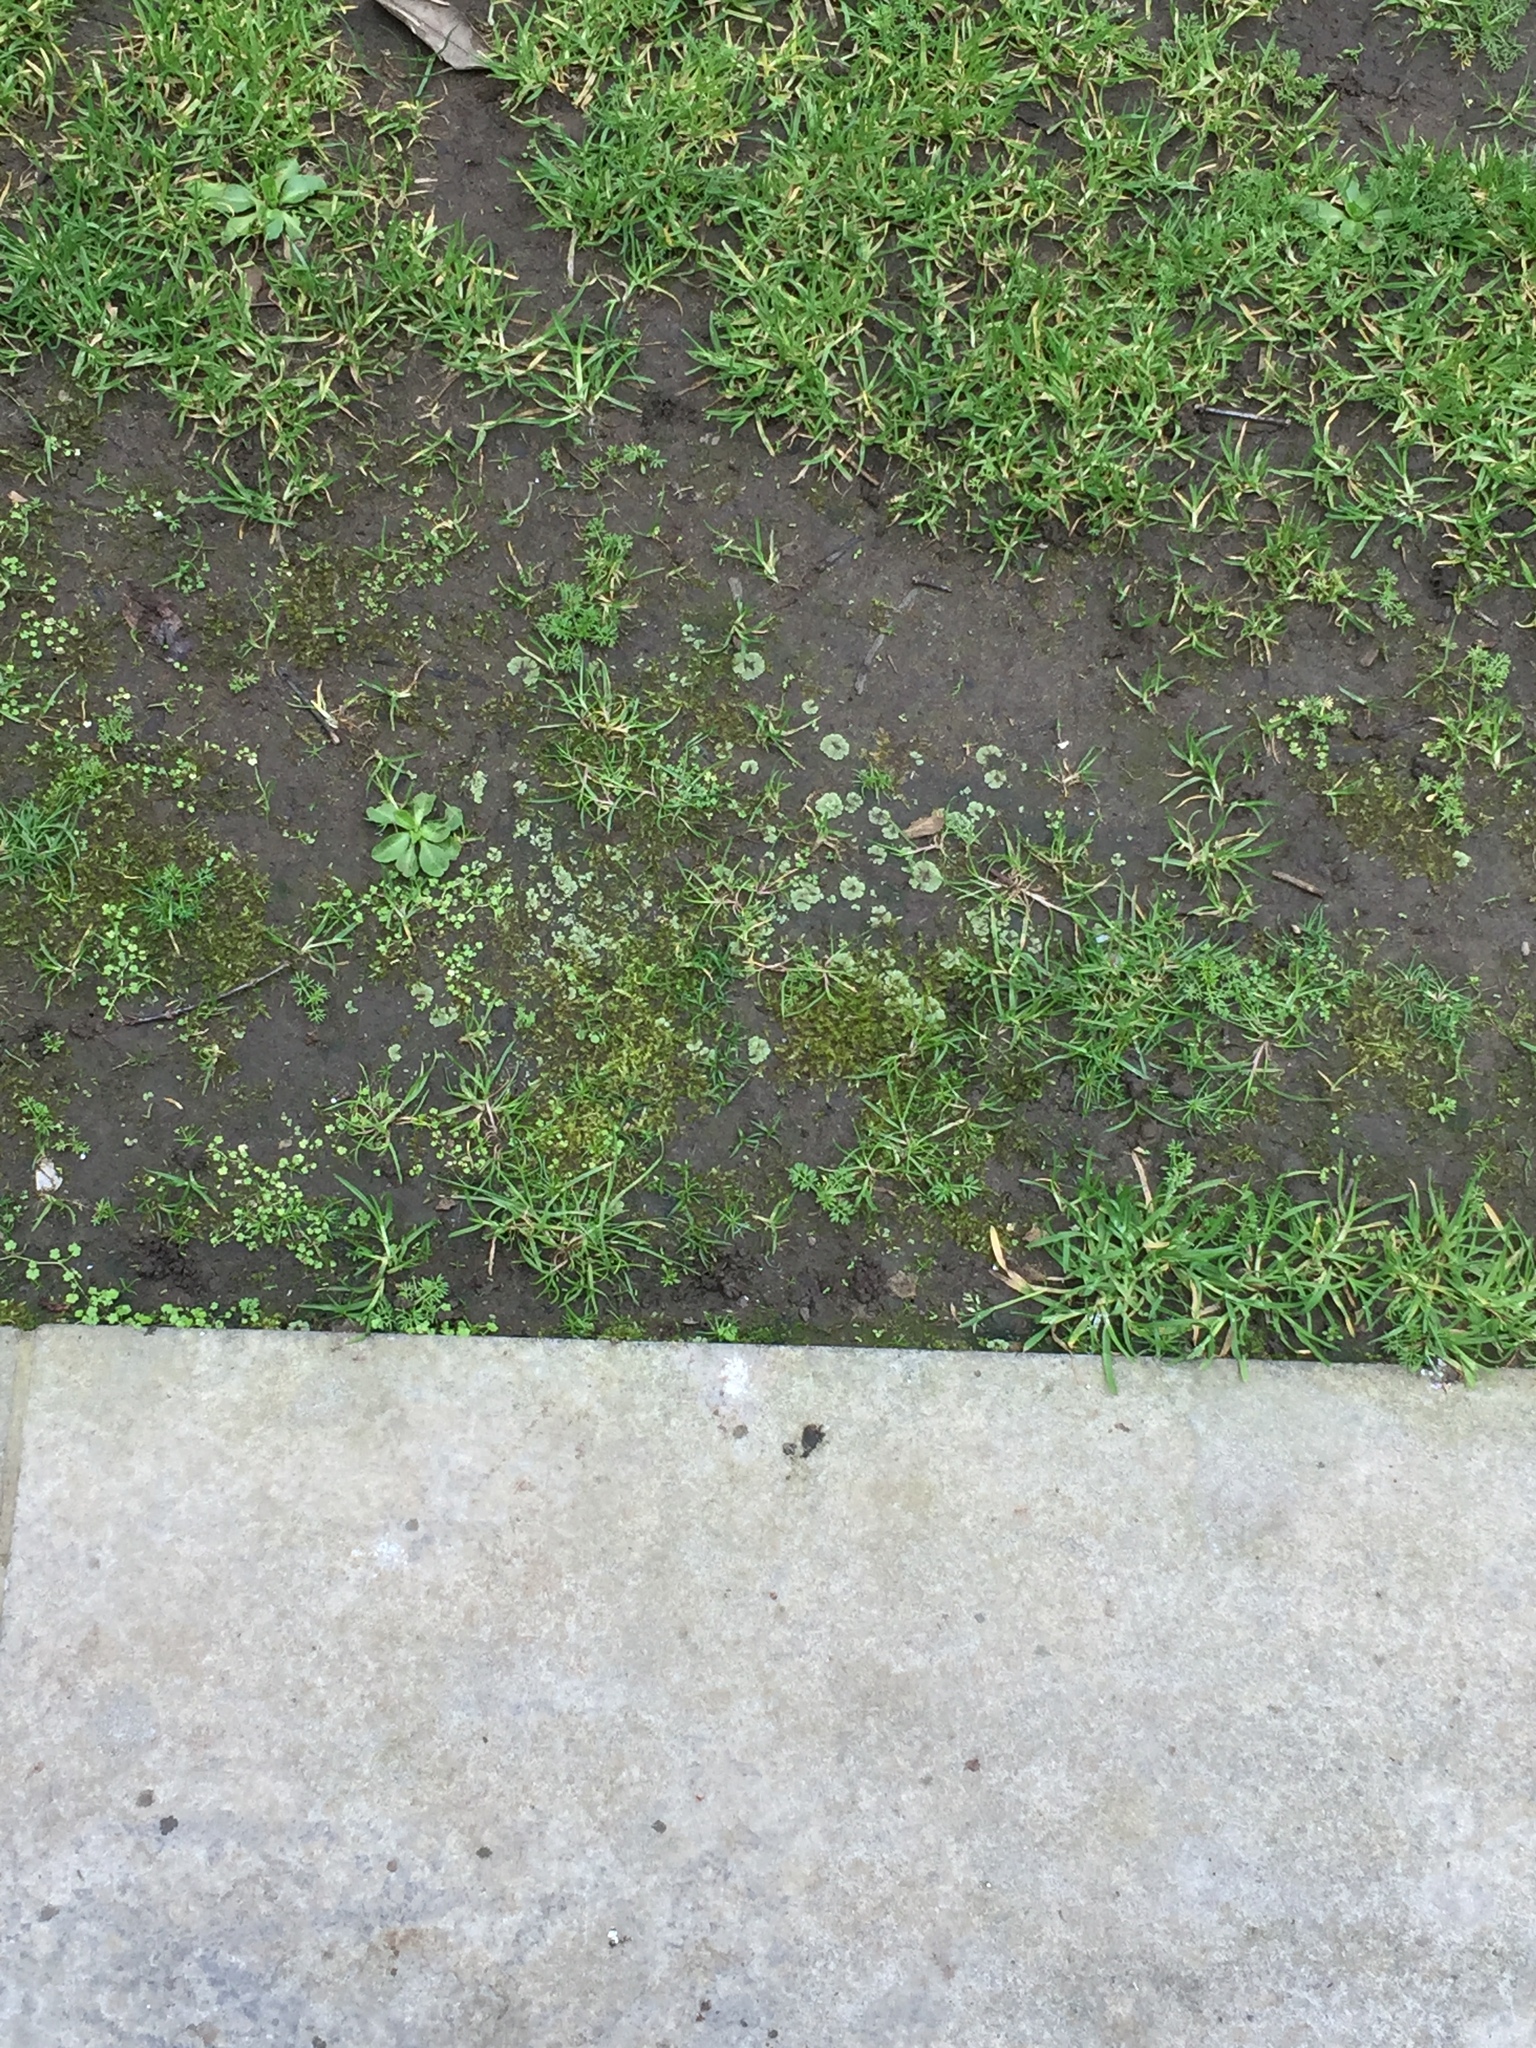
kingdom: Plantae
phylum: Marchantiophyta
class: Marchantiopsida
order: Marchantiales
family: Ricciaceae
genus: Riccia
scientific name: Riccia crystallina
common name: Blue crystalwort
